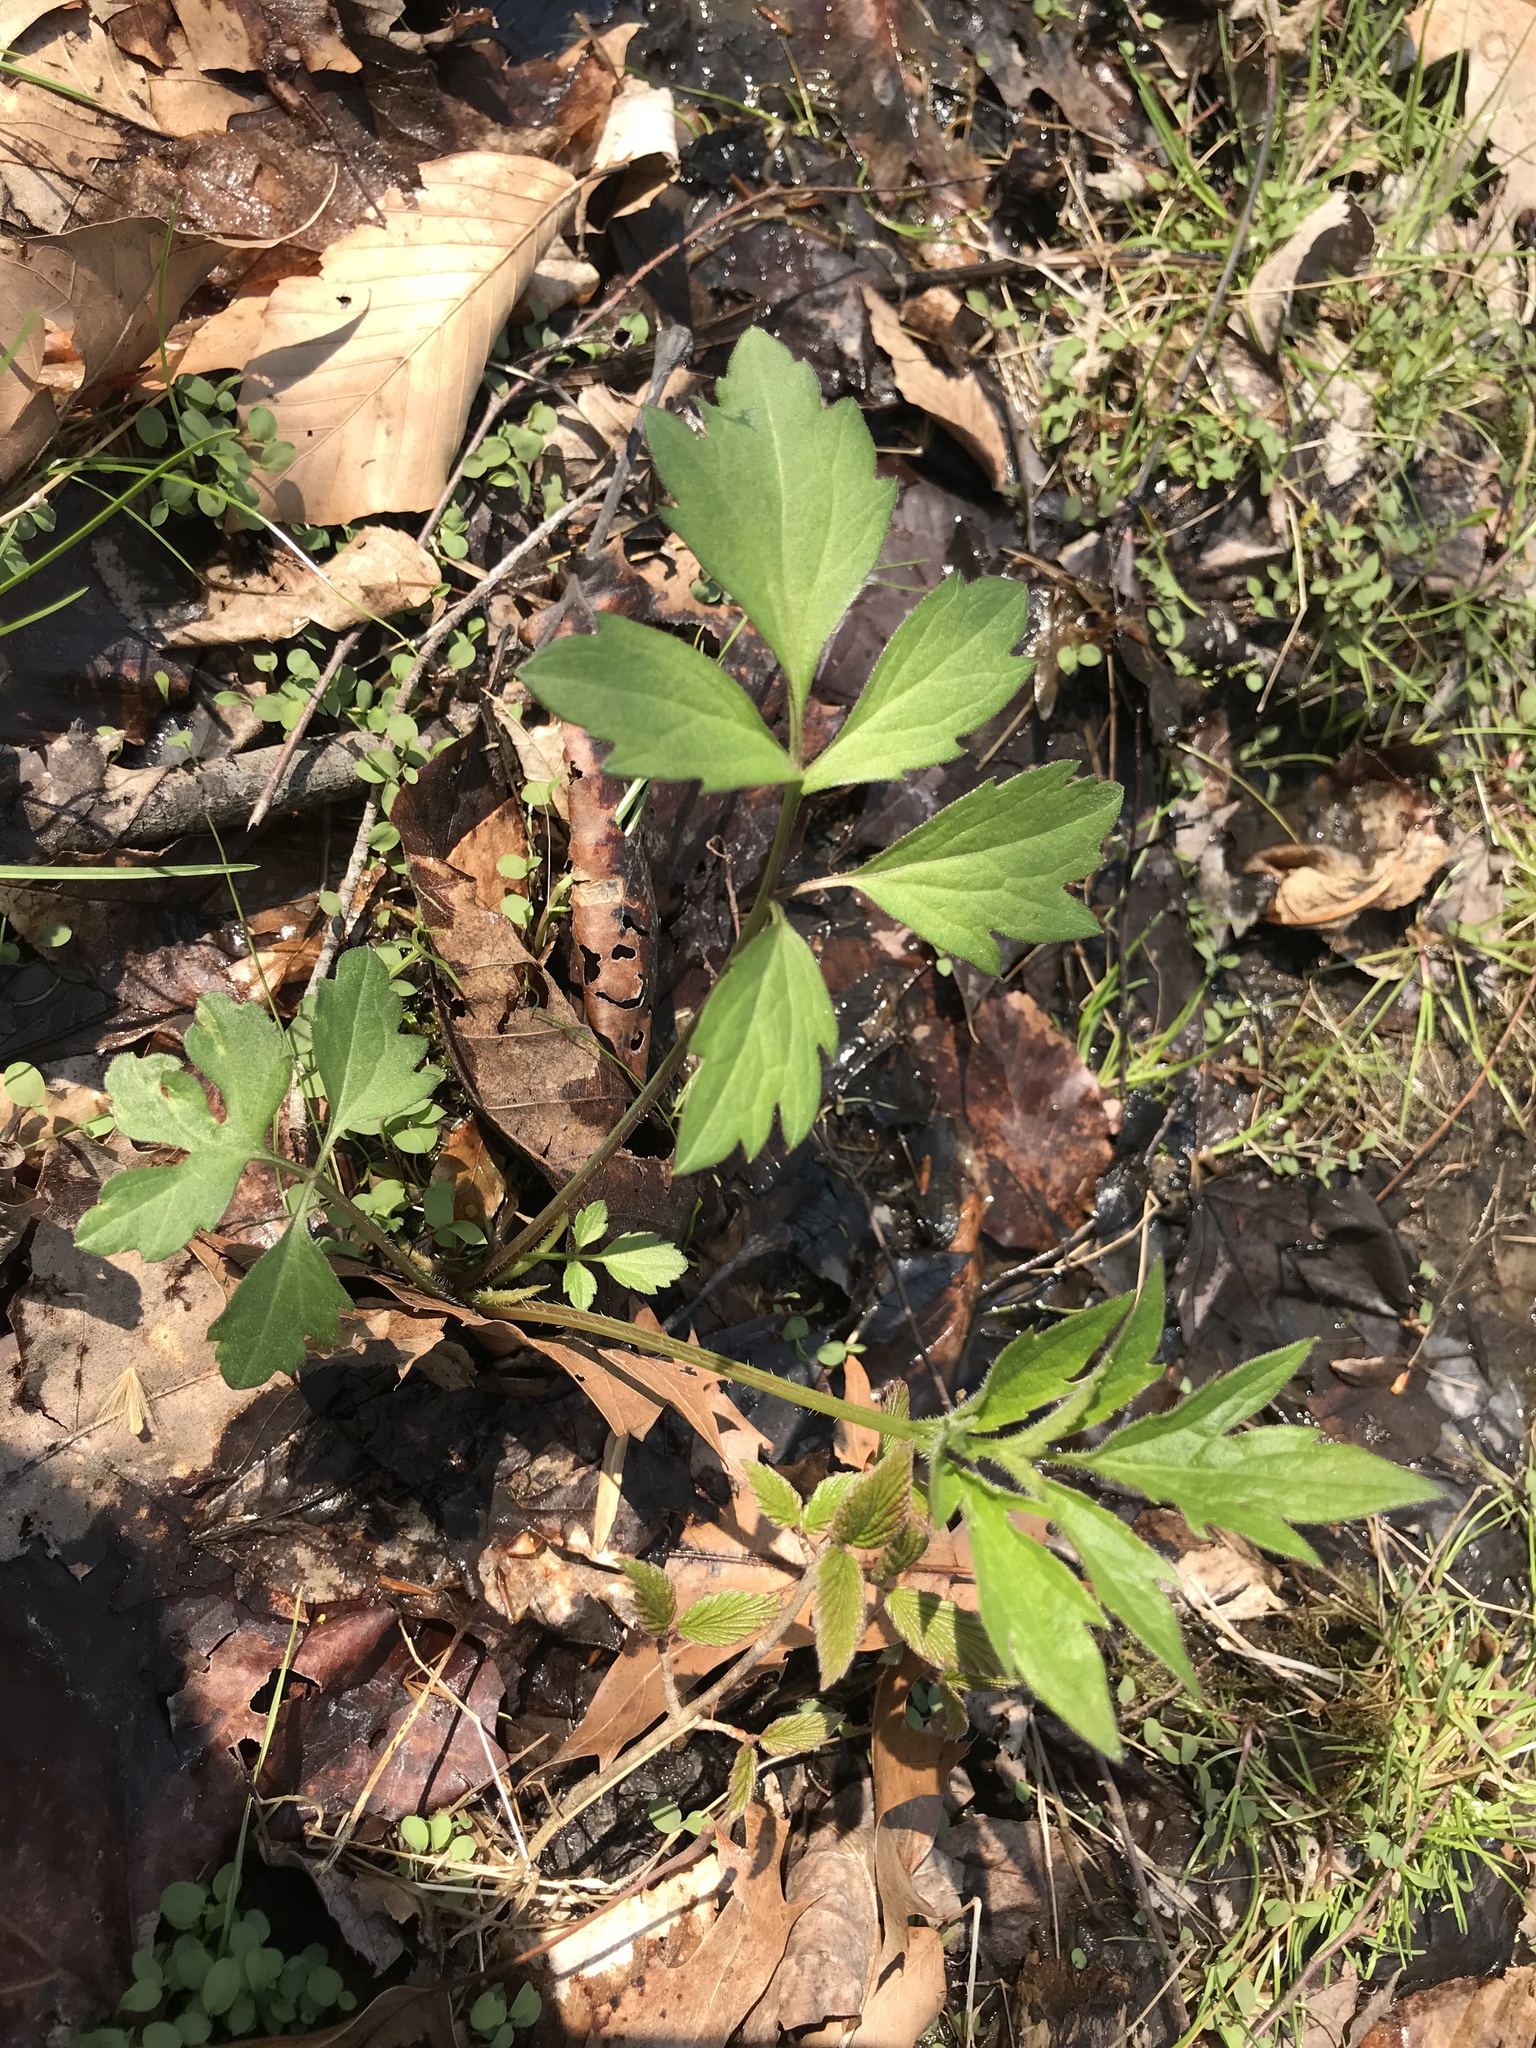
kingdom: Plantae
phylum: Tracheophyta
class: Magnoliopsida
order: Asterales
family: Asteraceae
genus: Rudbeckia
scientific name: Rudbeckia laciniata
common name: Coneflower
